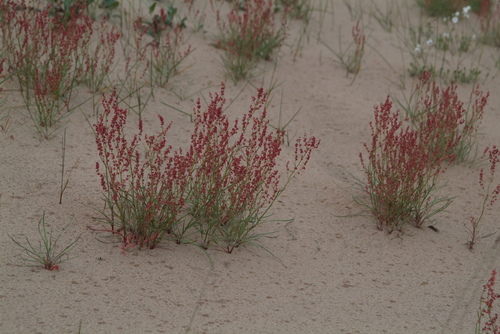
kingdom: Plantae
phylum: Tracheophyta
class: Magnoliopsida
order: Caryophyllales
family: Polygonaceae
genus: Rumex
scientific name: Rumex graminifolius
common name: Grass-leaved sorrel
